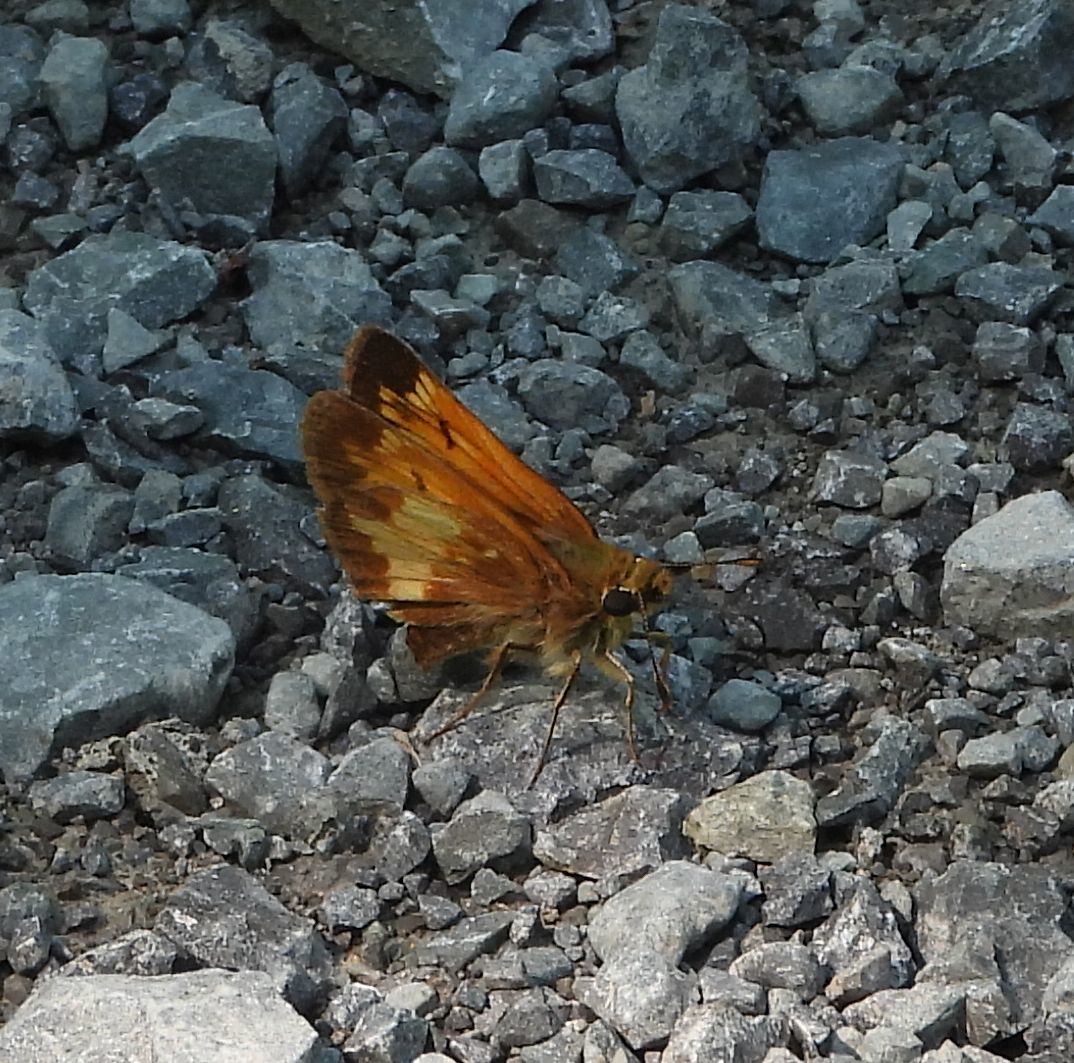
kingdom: Animalia
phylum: Arthropoda
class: Insecta
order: Lepidoptera
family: Hesperiidae
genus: Lon
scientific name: Lon hobomok
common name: Hobomok skipper
